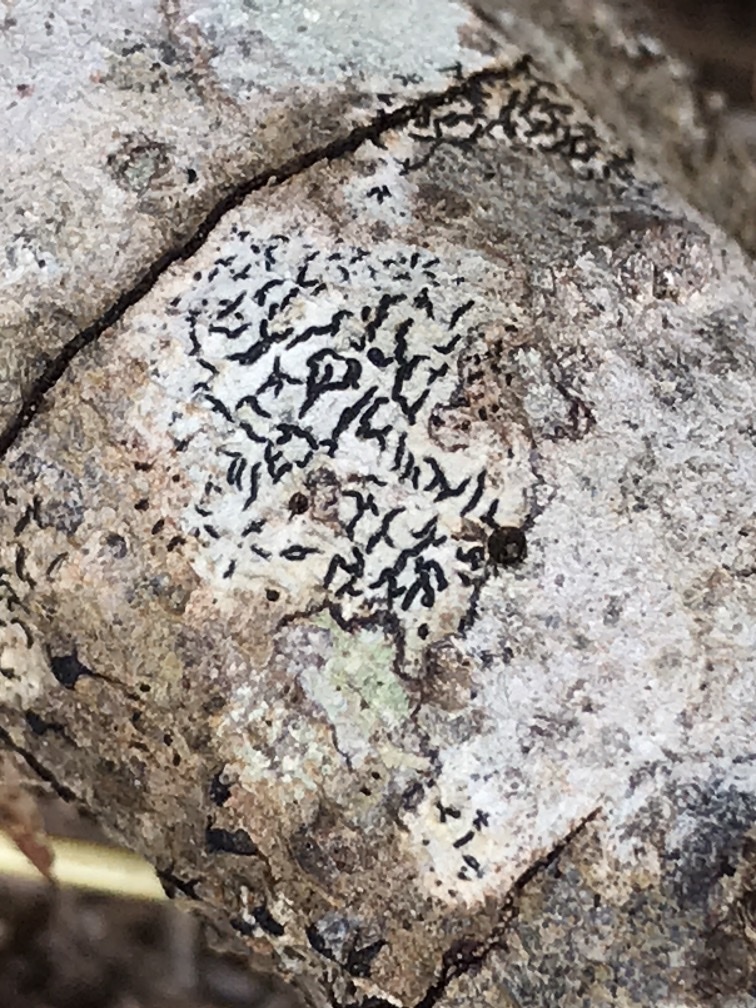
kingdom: Fungi
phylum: Ascomycota
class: Lecanoromycetes
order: Ostropales
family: Graphidaceae
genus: Graphis
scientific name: Graphis scripta
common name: Script lichen
